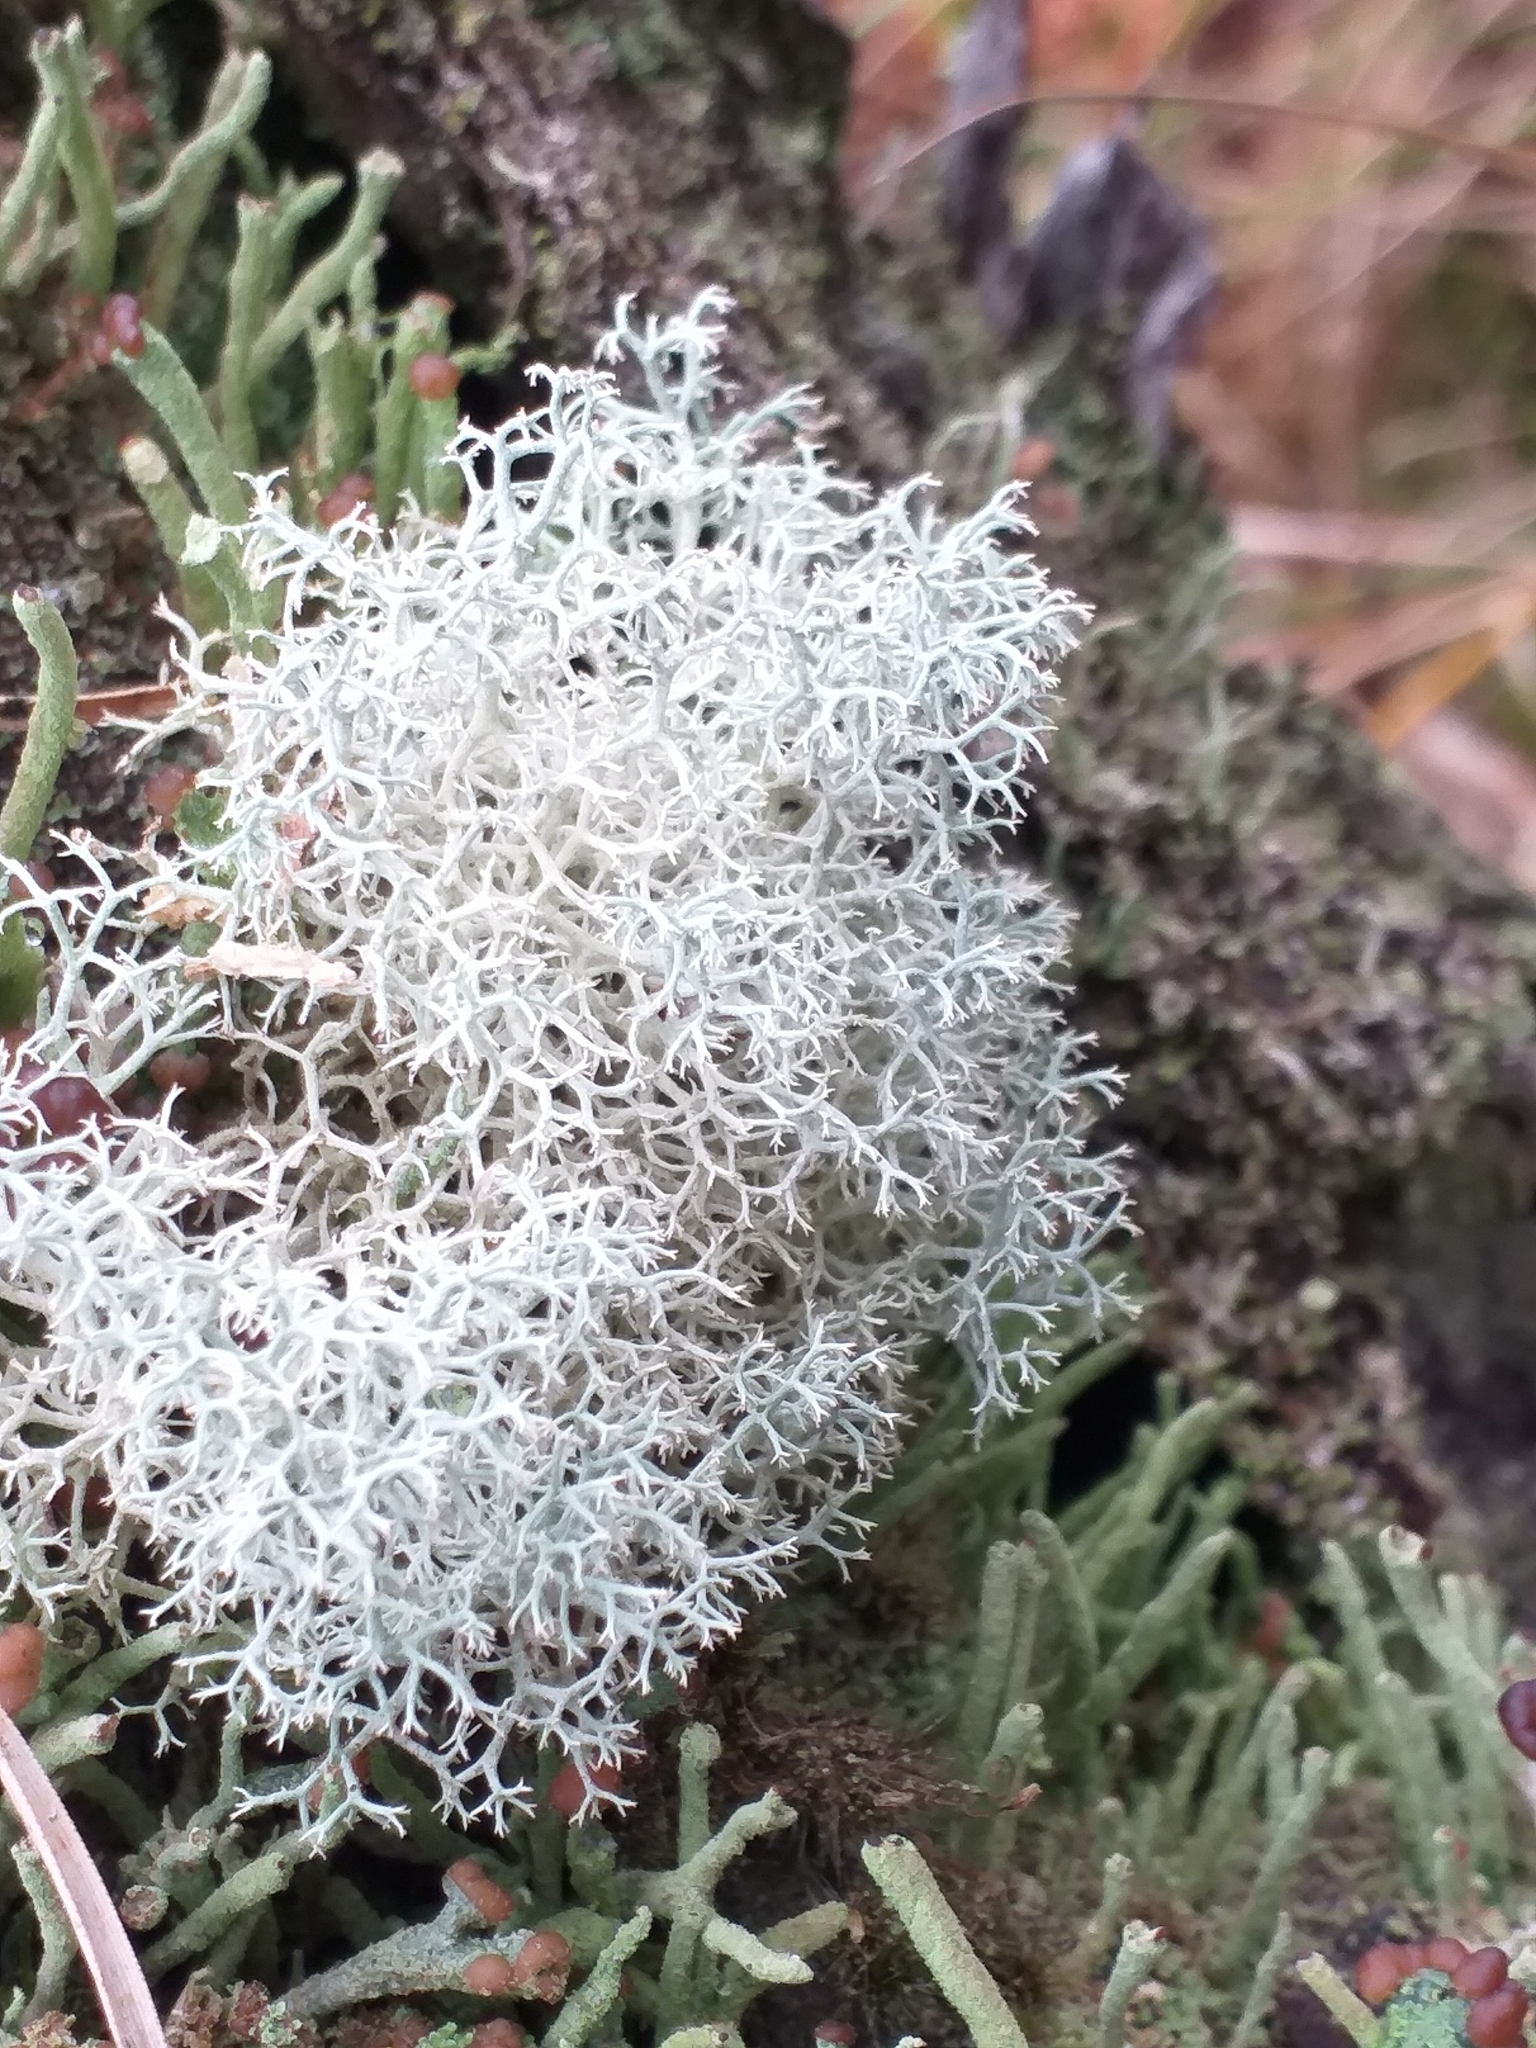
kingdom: Fungi
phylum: Ascomycota
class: Lecanoromycetes
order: Lecanorales
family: Cladoniaceae
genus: Cladonia
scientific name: Cladonia portentosa
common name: Reindeer lichen
